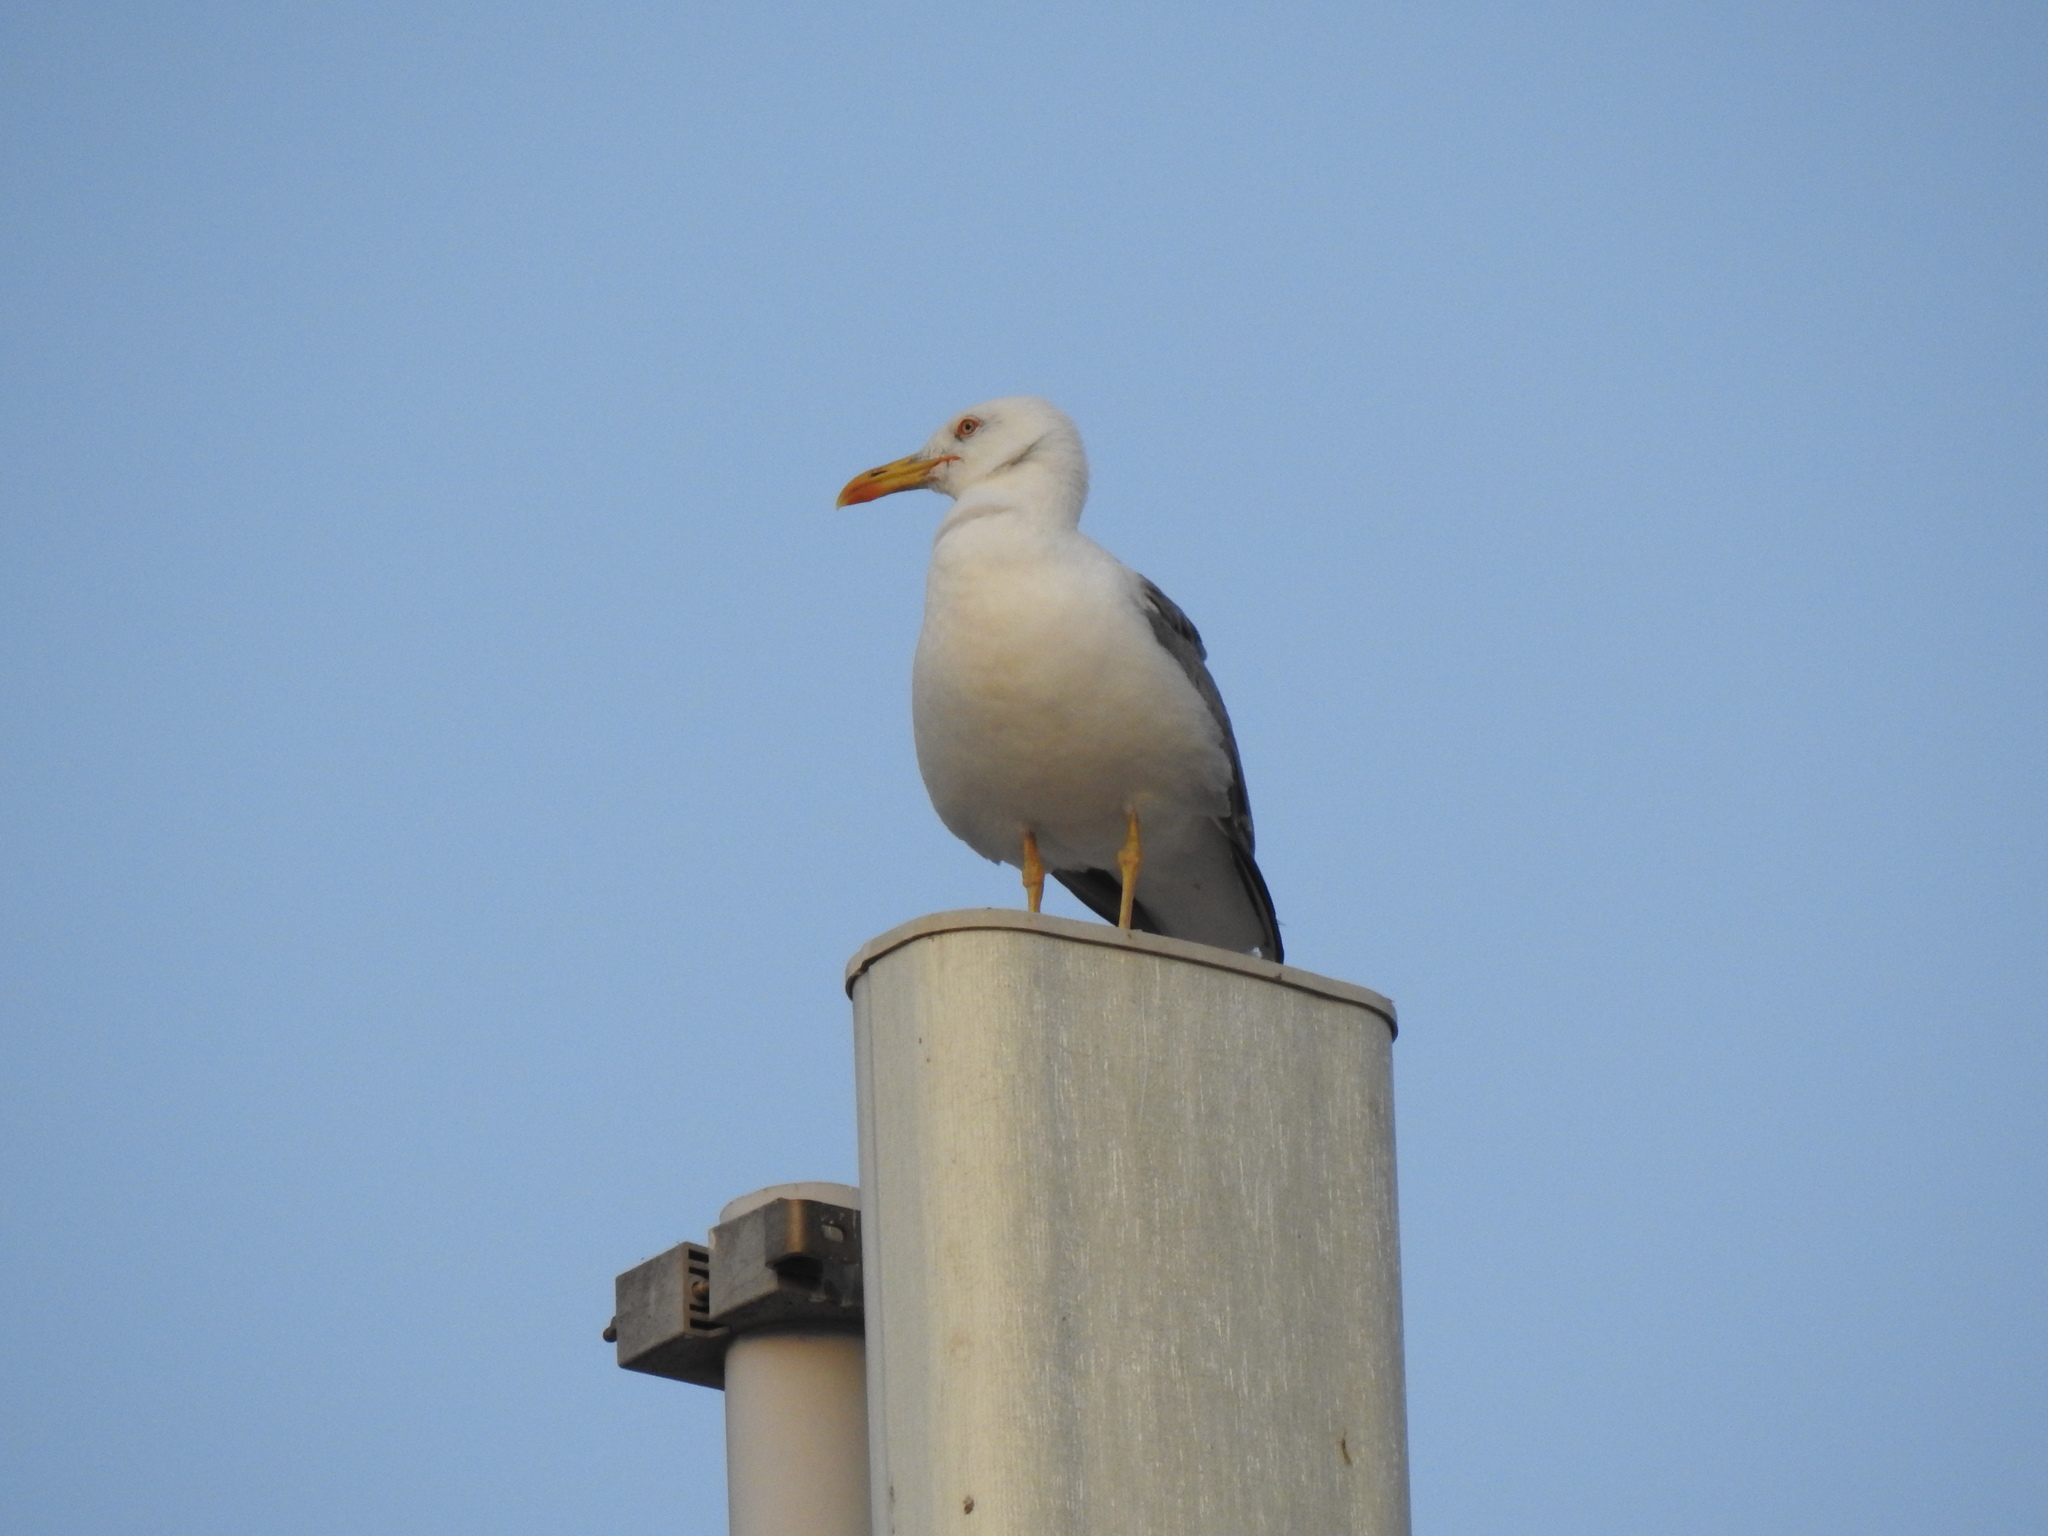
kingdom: Animalia
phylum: Chordata
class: Aves
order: Charadriiformes
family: Laridae
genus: Larus
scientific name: Larus michahellis
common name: Yellow-legged gull
